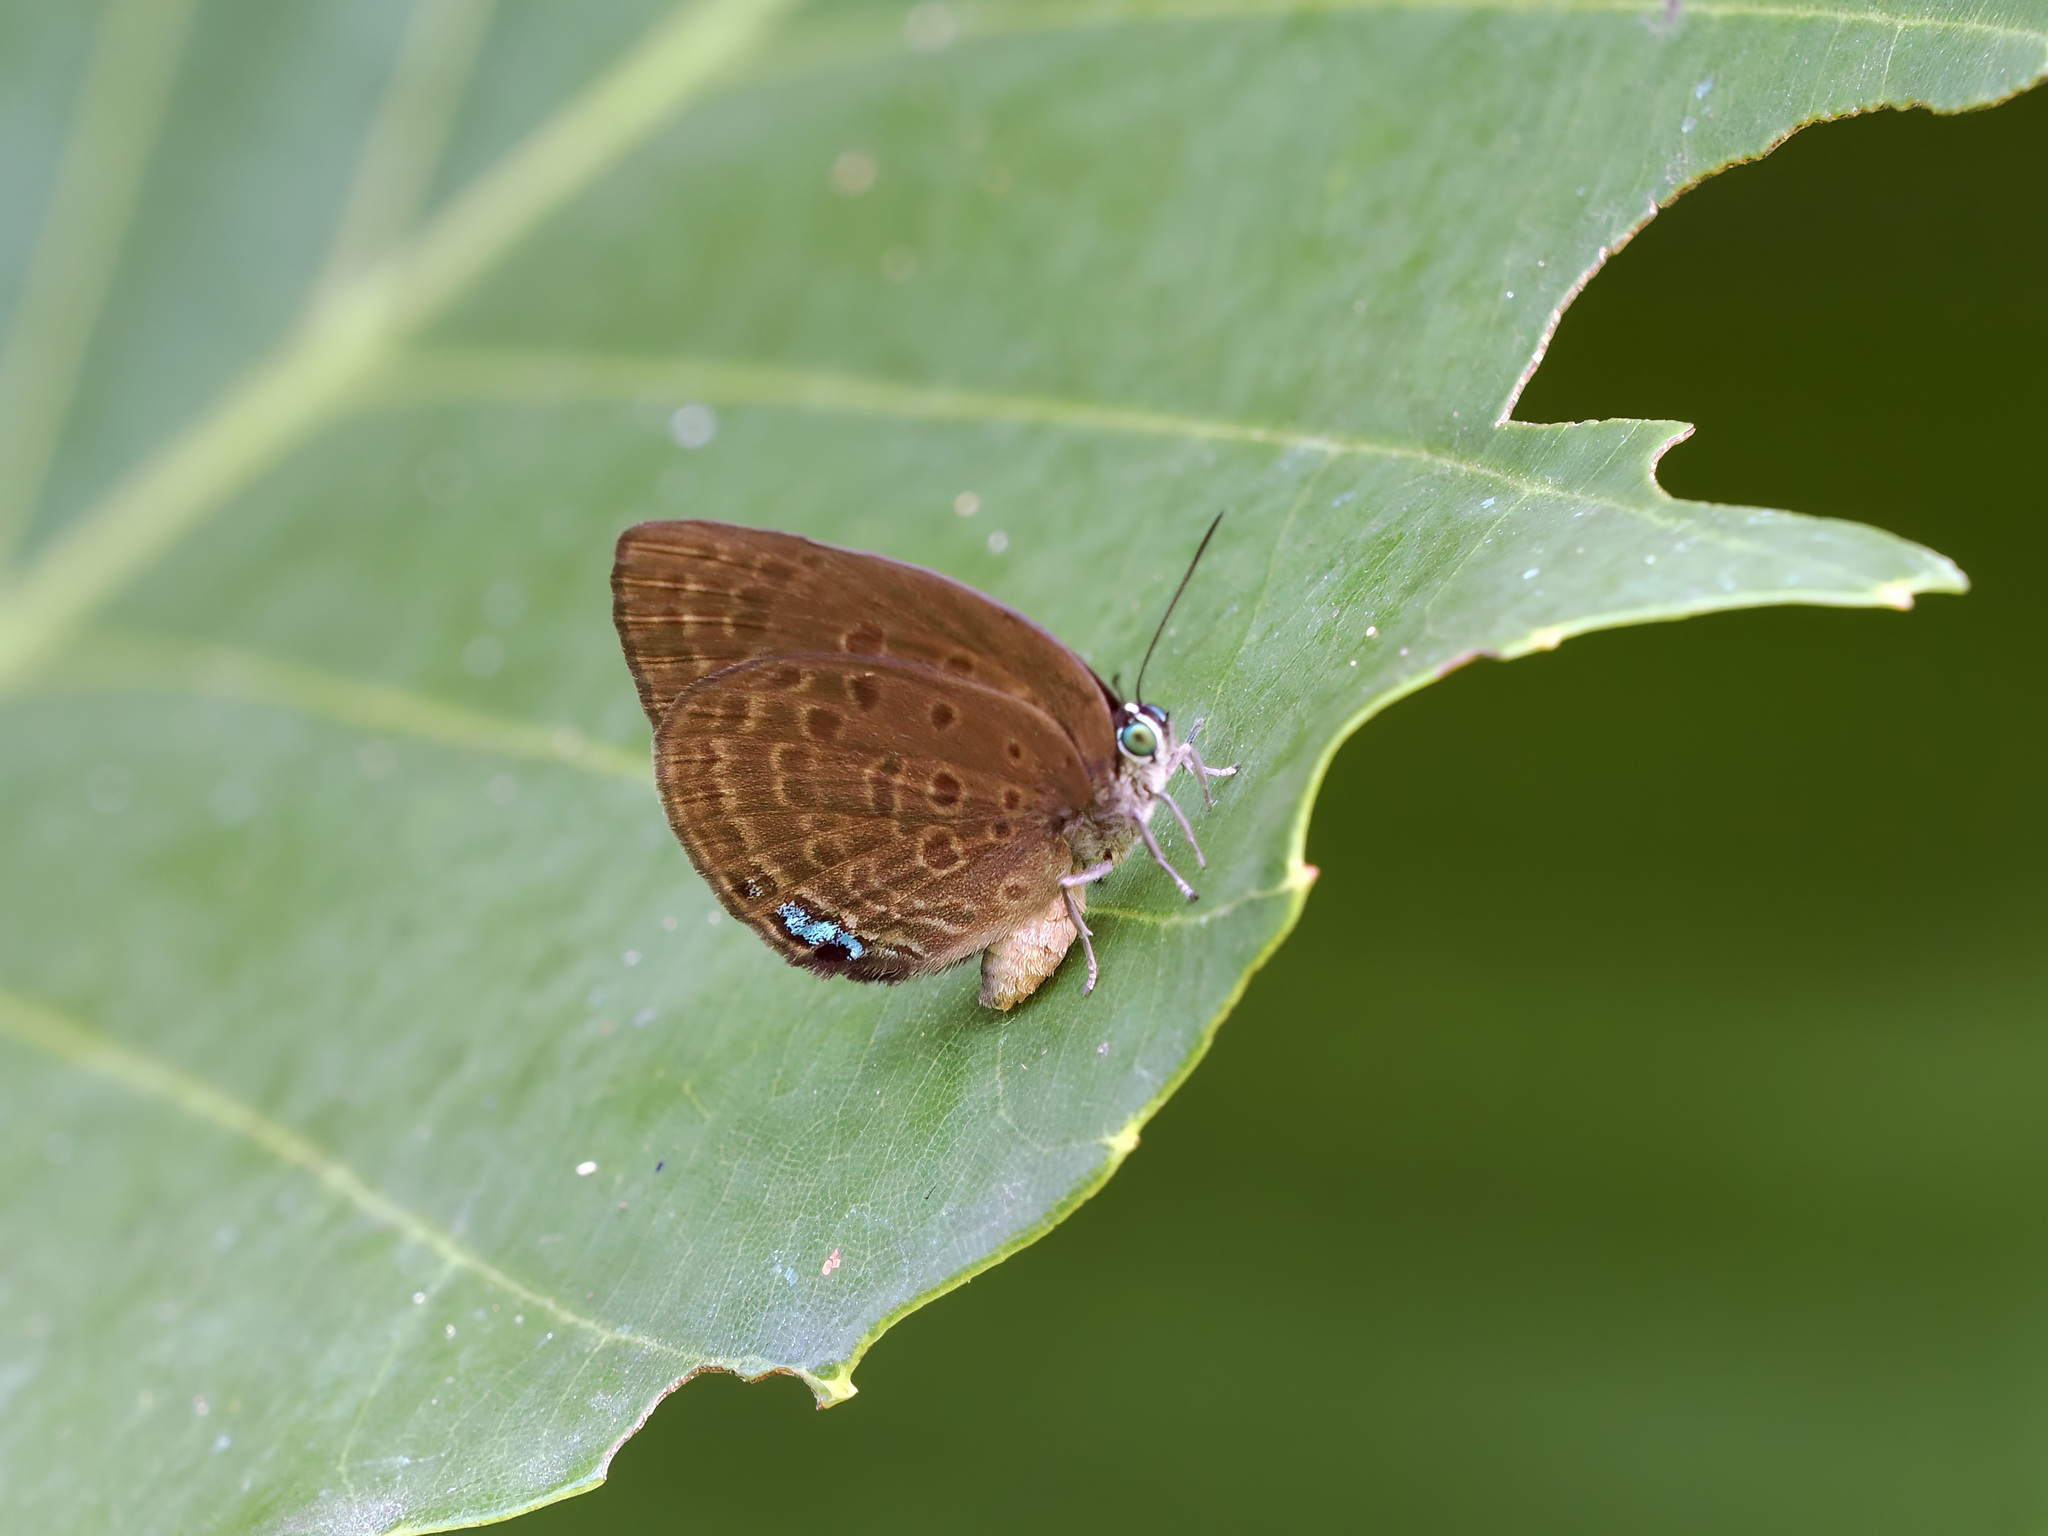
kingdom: Animalia
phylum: Arthropoda
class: Insecta
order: Lepidoptera
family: Lycaenidae
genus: Arhopala
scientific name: Arhopala major
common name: Major yellow oakblue
